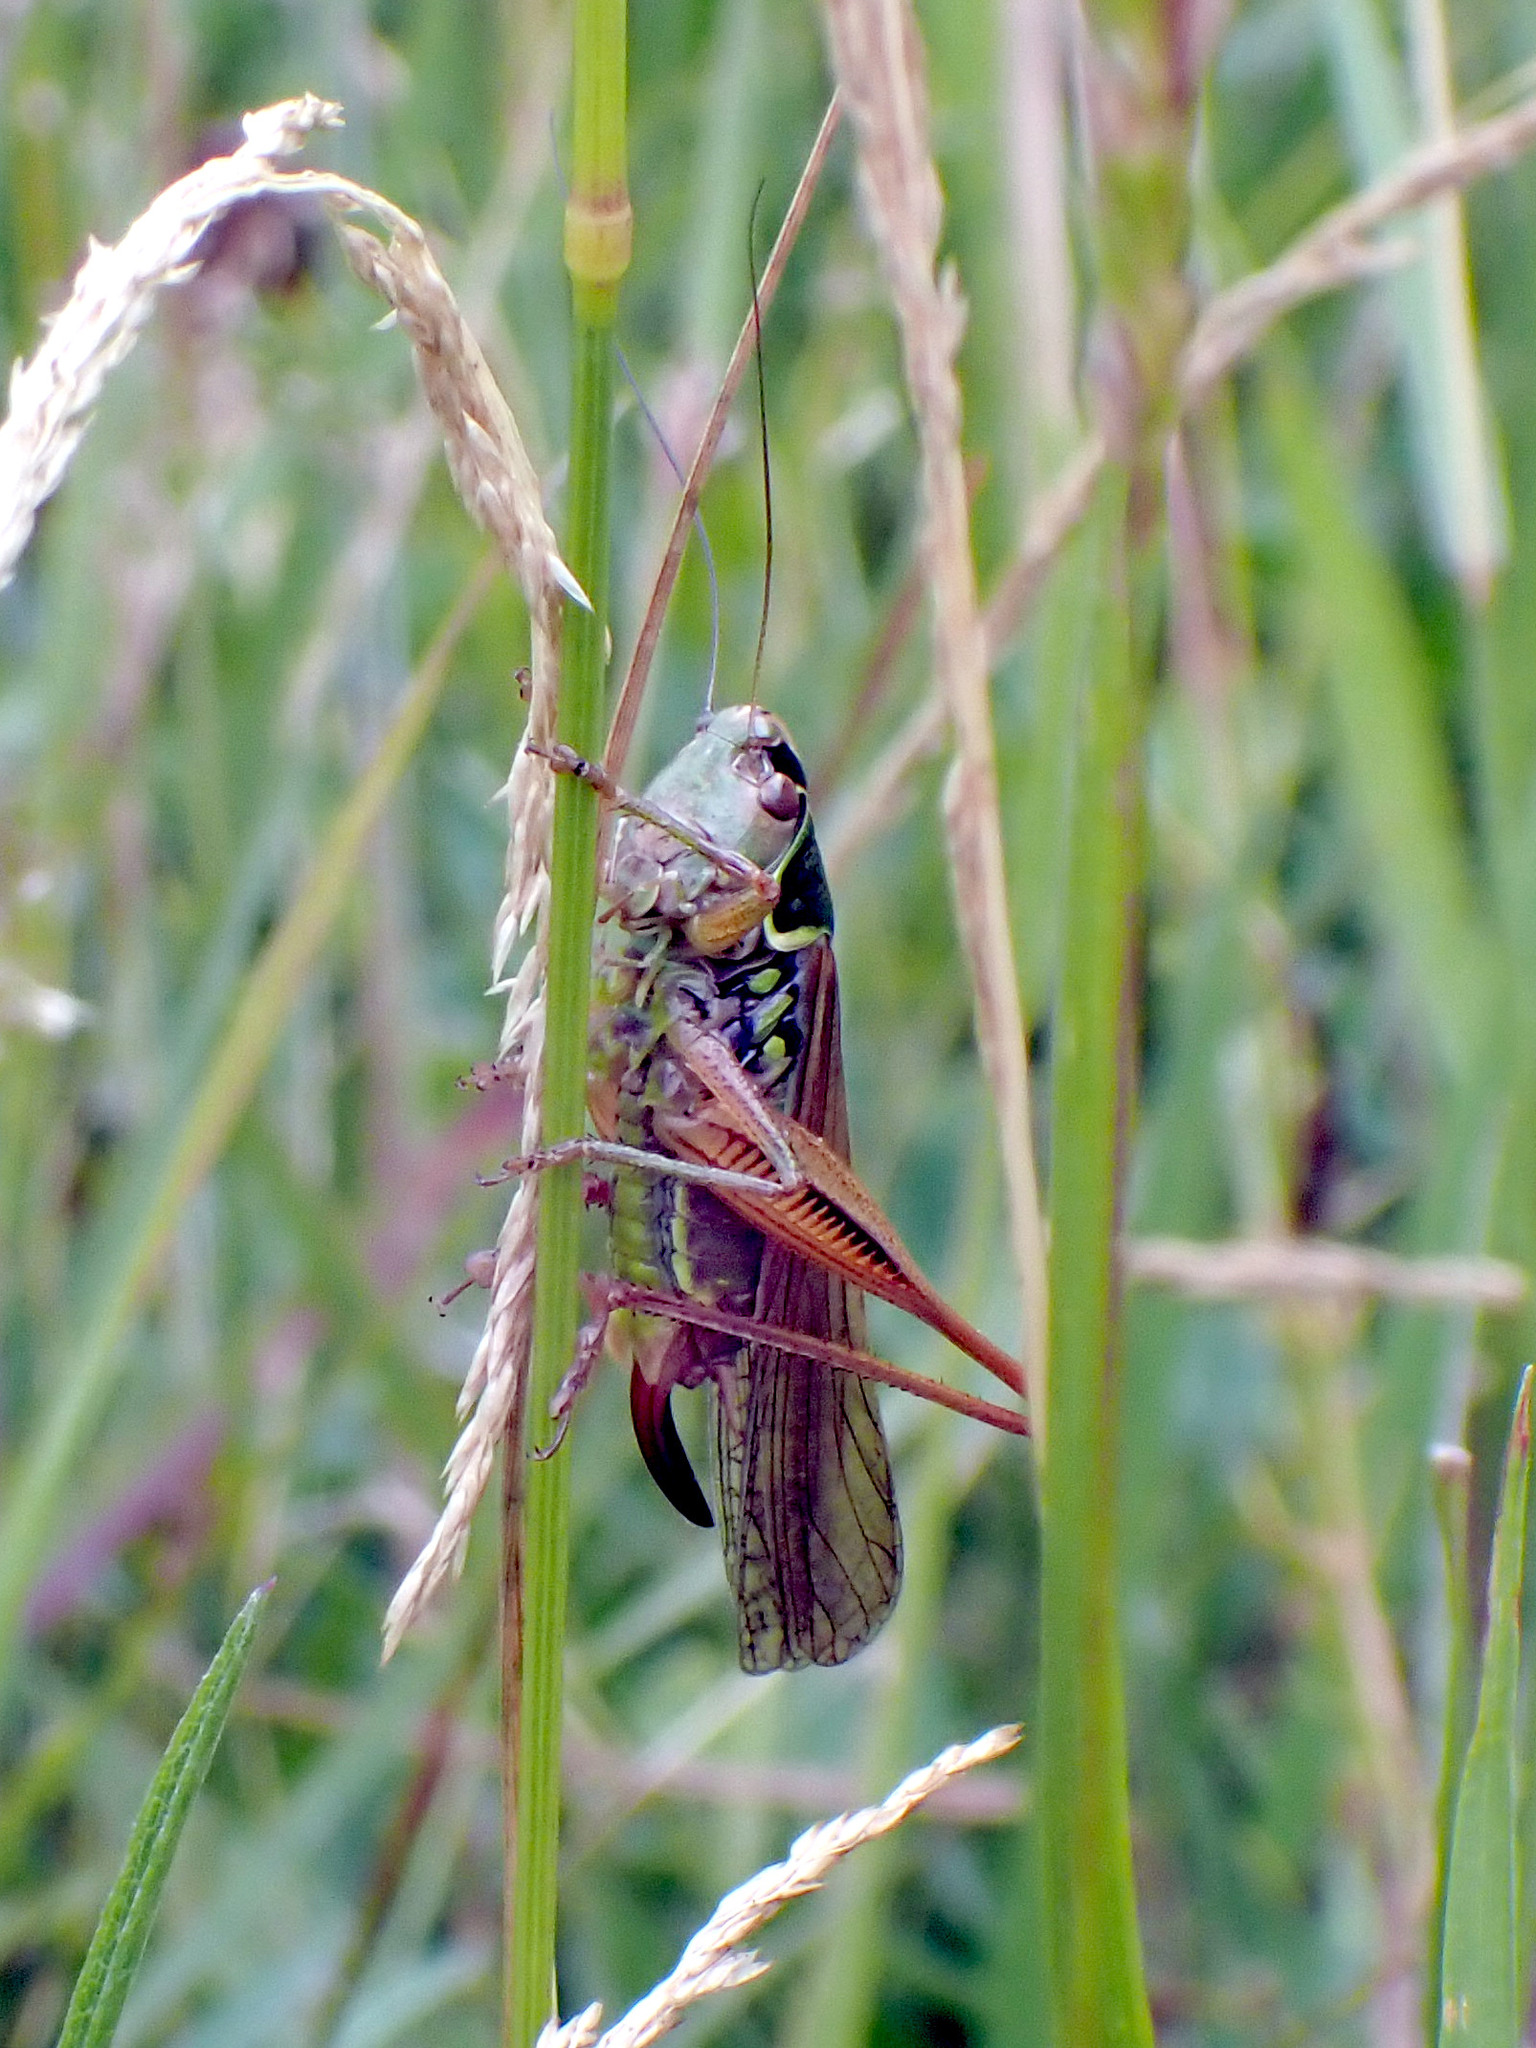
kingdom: Animalia
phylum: Arthropoda
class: Insecta
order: Orthoptera
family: Tettigoniidae
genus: Roeseliana
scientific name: Roeseliana roeselii
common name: Roesel's bush cricket
